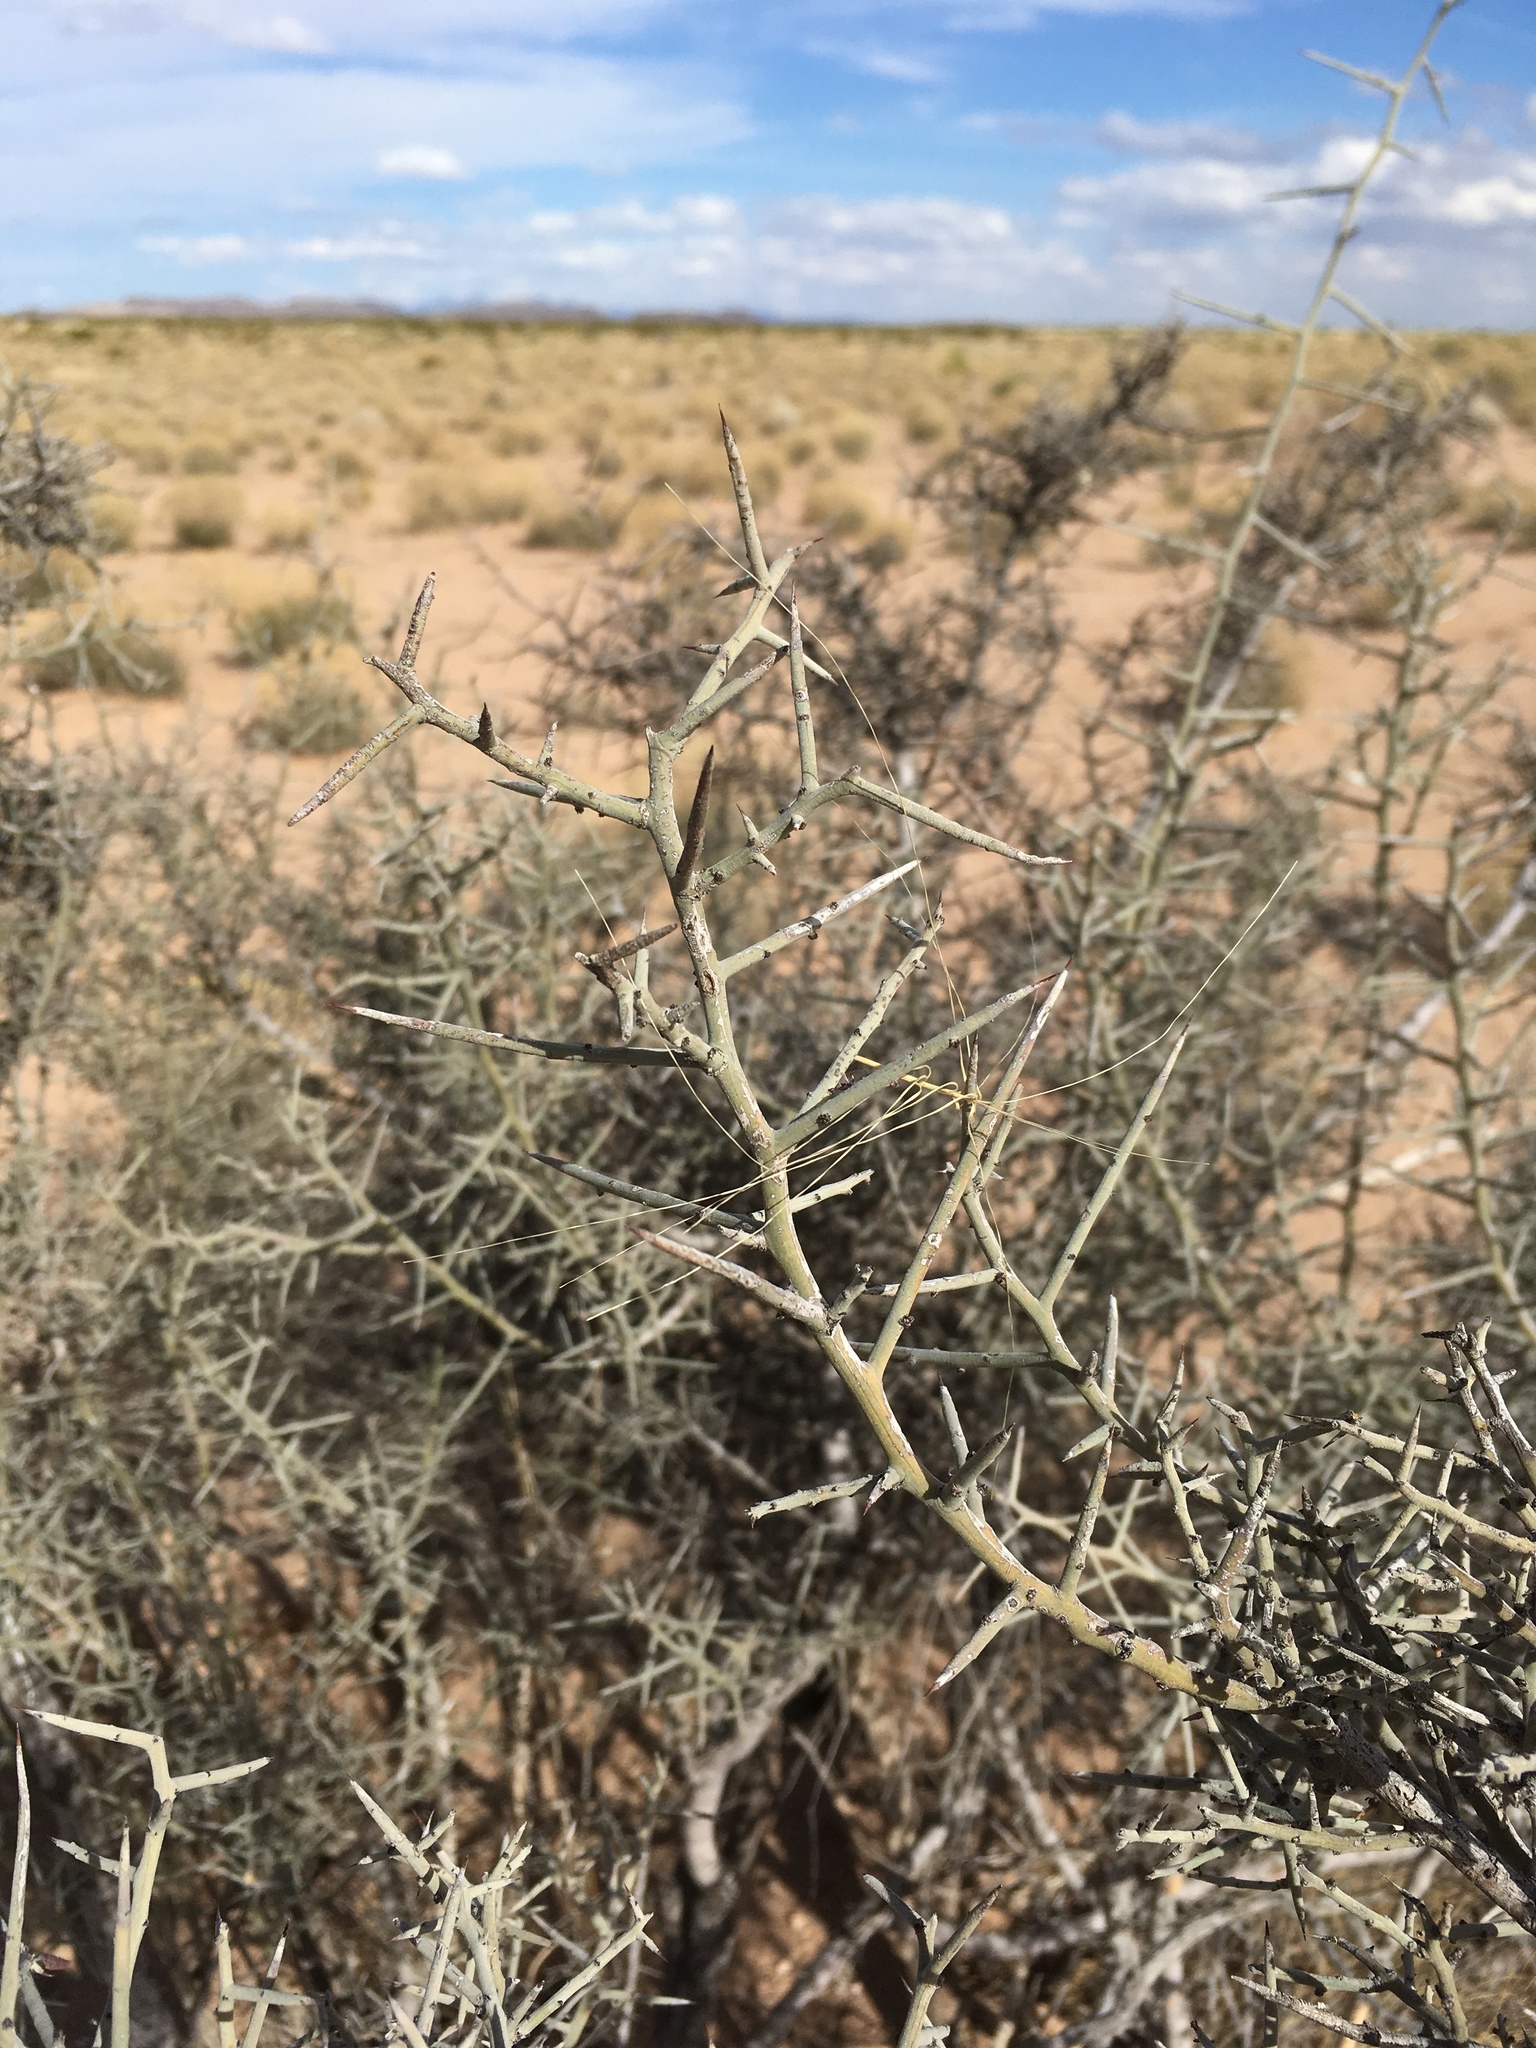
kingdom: Plantae
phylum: Tracheophyta
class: Magnoliopsida
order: Rosales
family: Rhamnaceae
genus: Sarcomphalus
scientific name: Sarcomphalus obtusifolius
